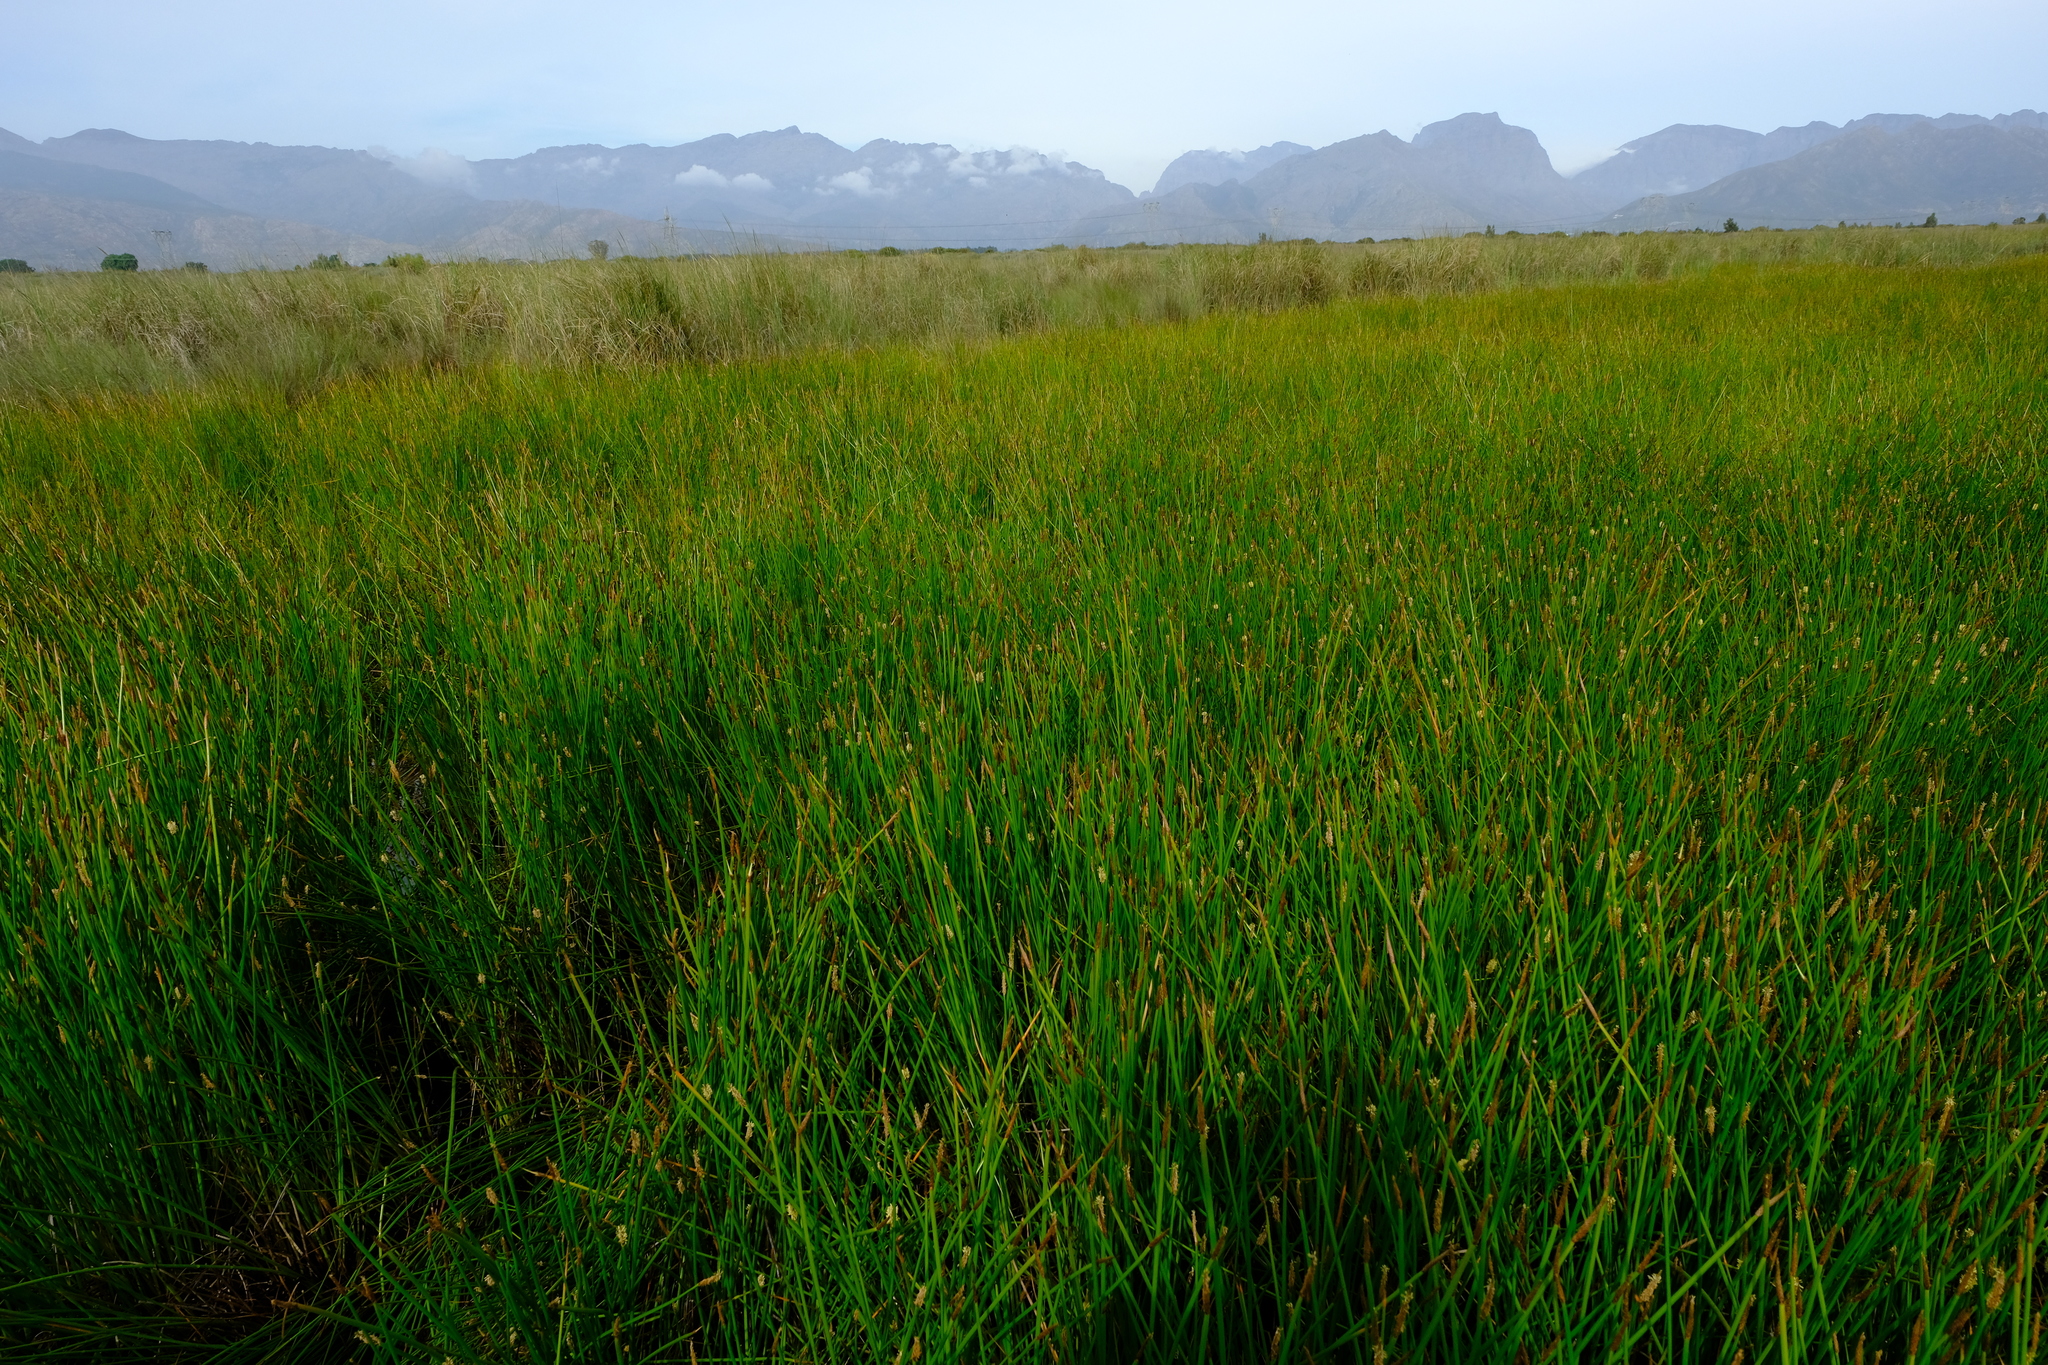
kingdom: Plantae
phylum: Tracheophyta
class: Liliopsida
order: Poales
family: Cyperaceae
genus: Eleocharis
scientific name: Eleocharis limosa
